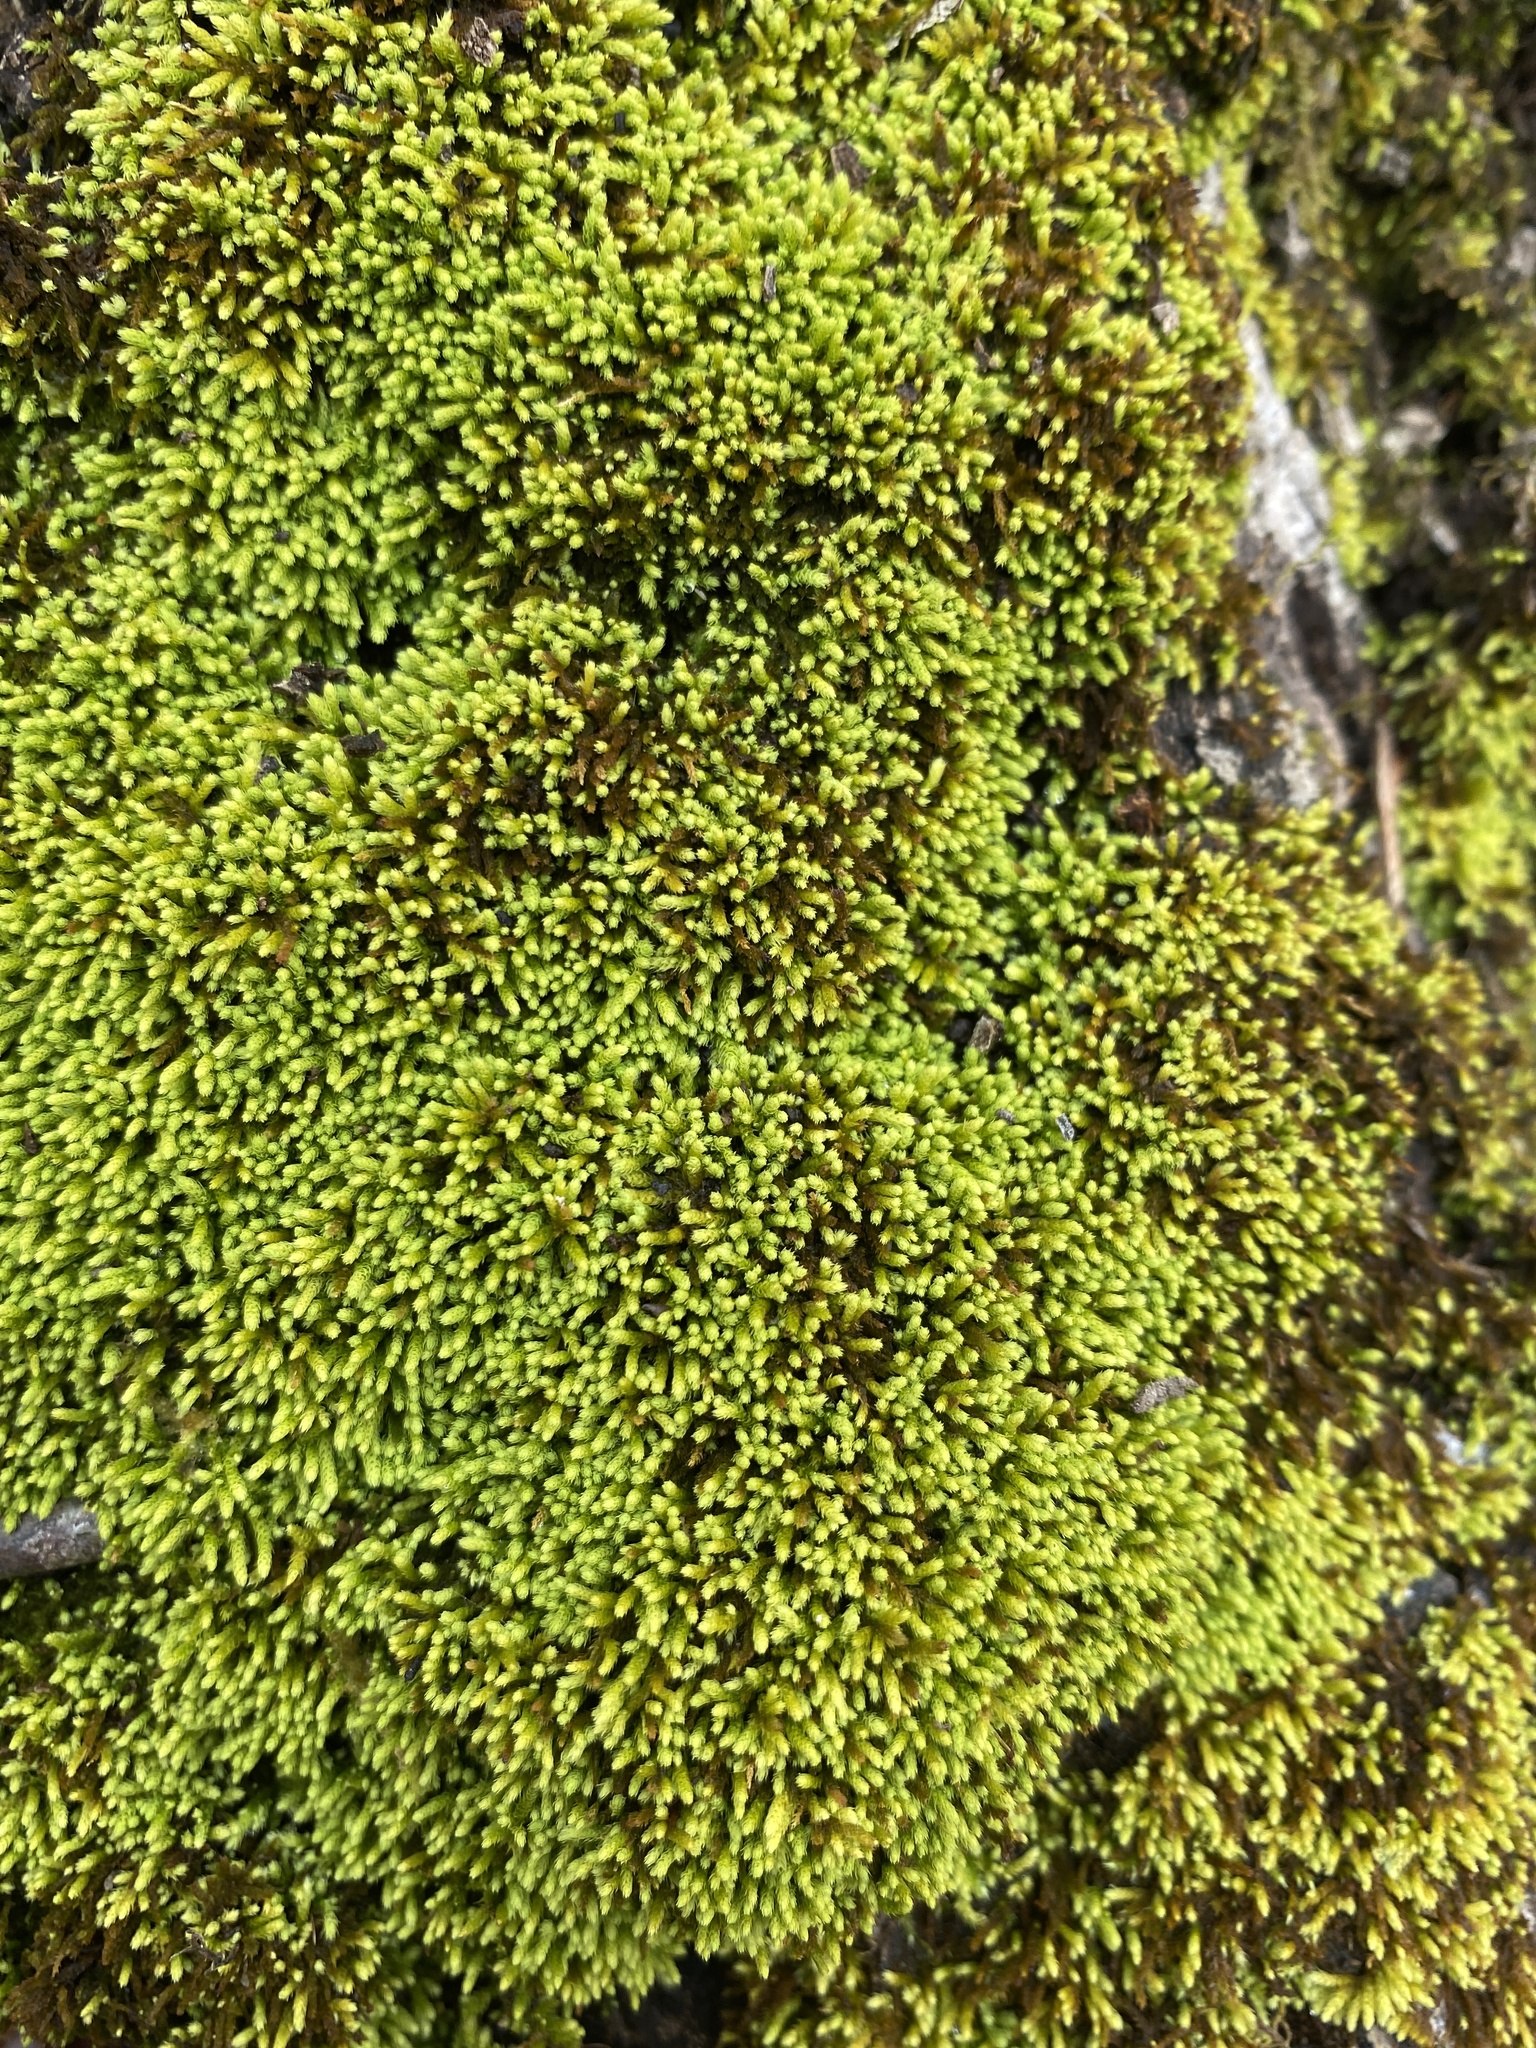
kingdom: Plantae
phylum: Bryophyta
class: Bryopsida
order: Hypnales
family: Brachytheciaceae
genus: Claopodium
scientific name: Claopodium rostratum
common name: Yellow yarn moss
